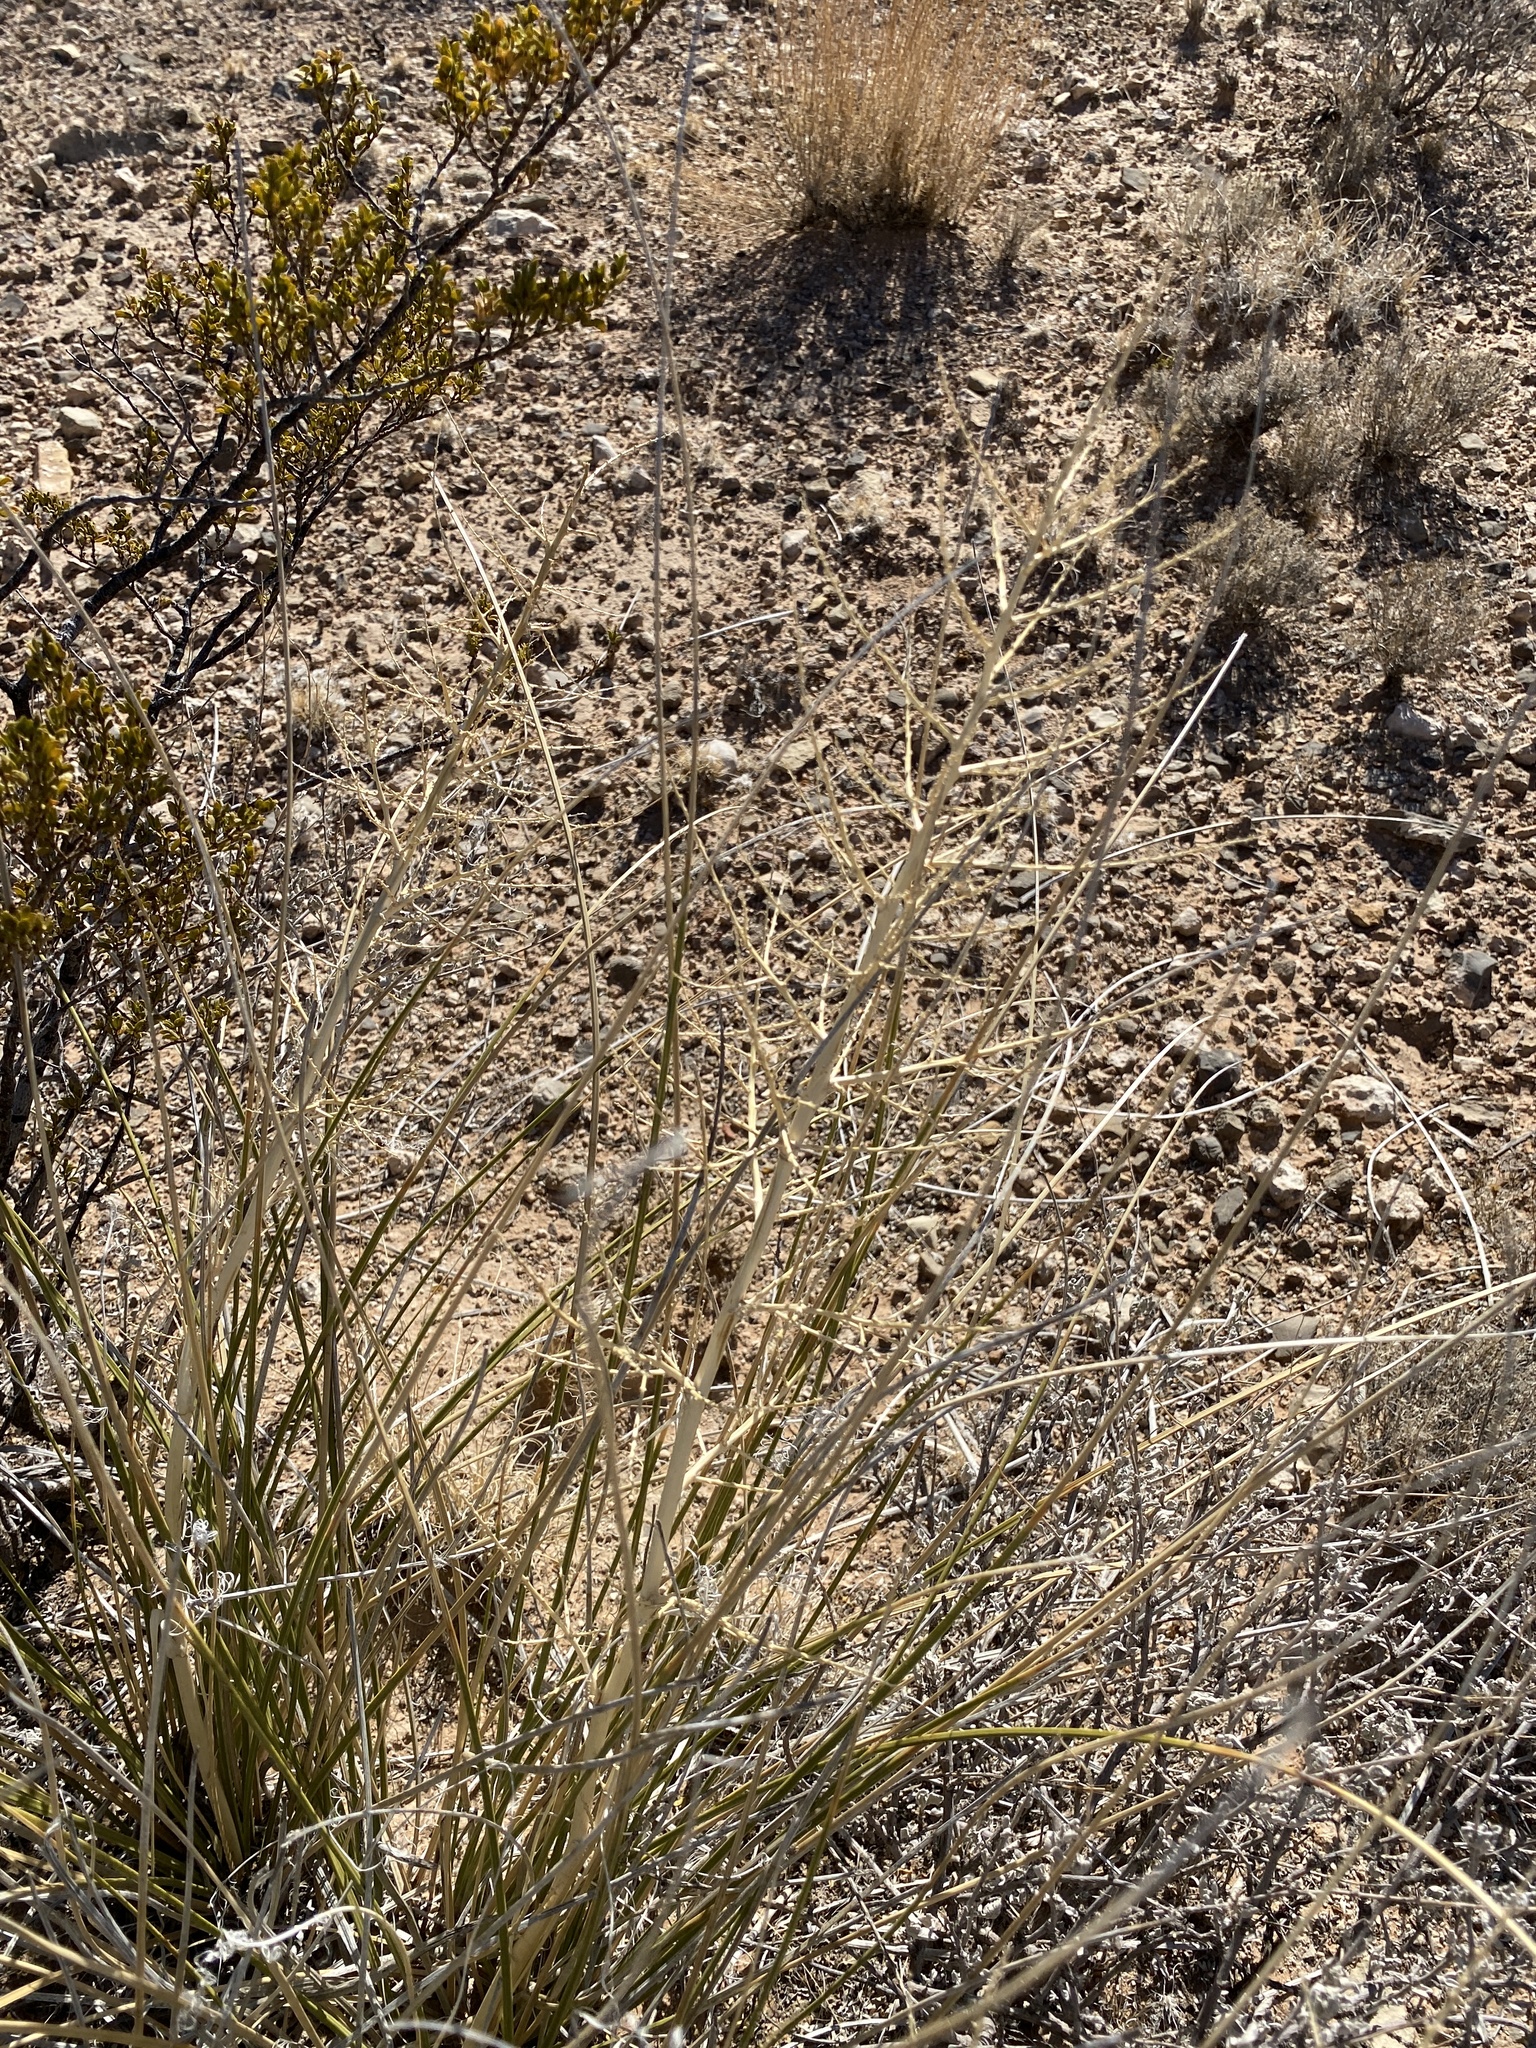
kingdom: Plantae
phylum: Tracheophyta
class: Liliopsida
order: Asparagales
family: Asparagaceae
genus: Nolina
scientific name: Nolina microcarpa
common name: Bear-grass
